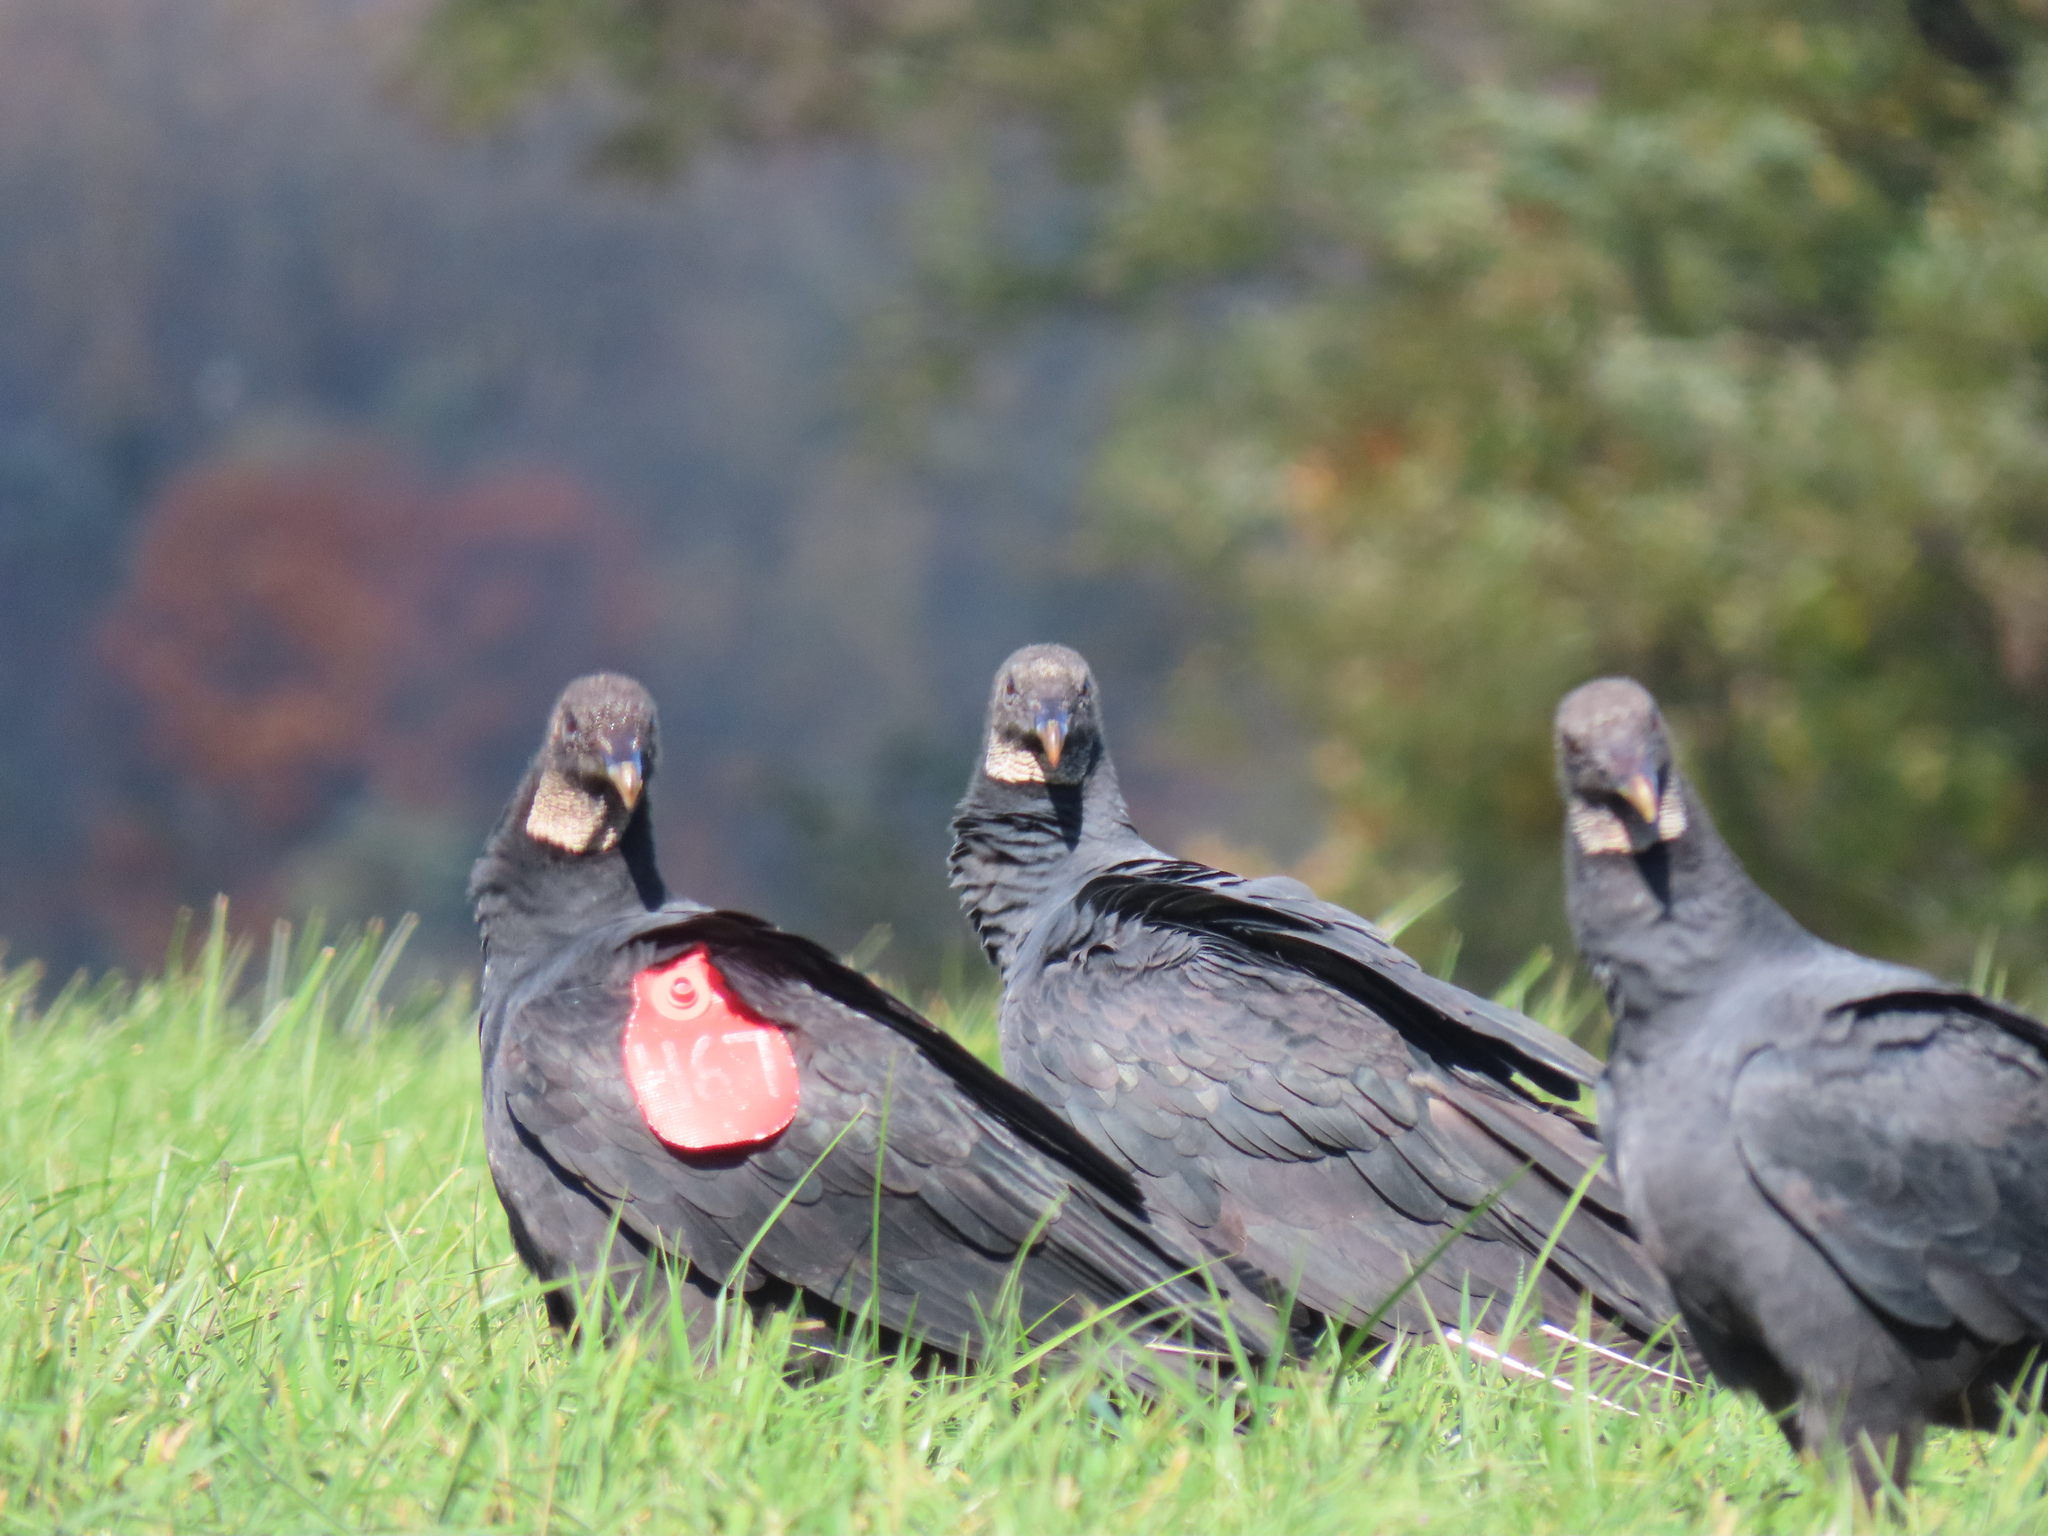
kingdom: Animalia
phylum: Chordata
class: Aves
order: Accipitriformes
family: Cathartidae
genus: Coragyps
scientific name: Coragyps atratus
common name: Black vulture
